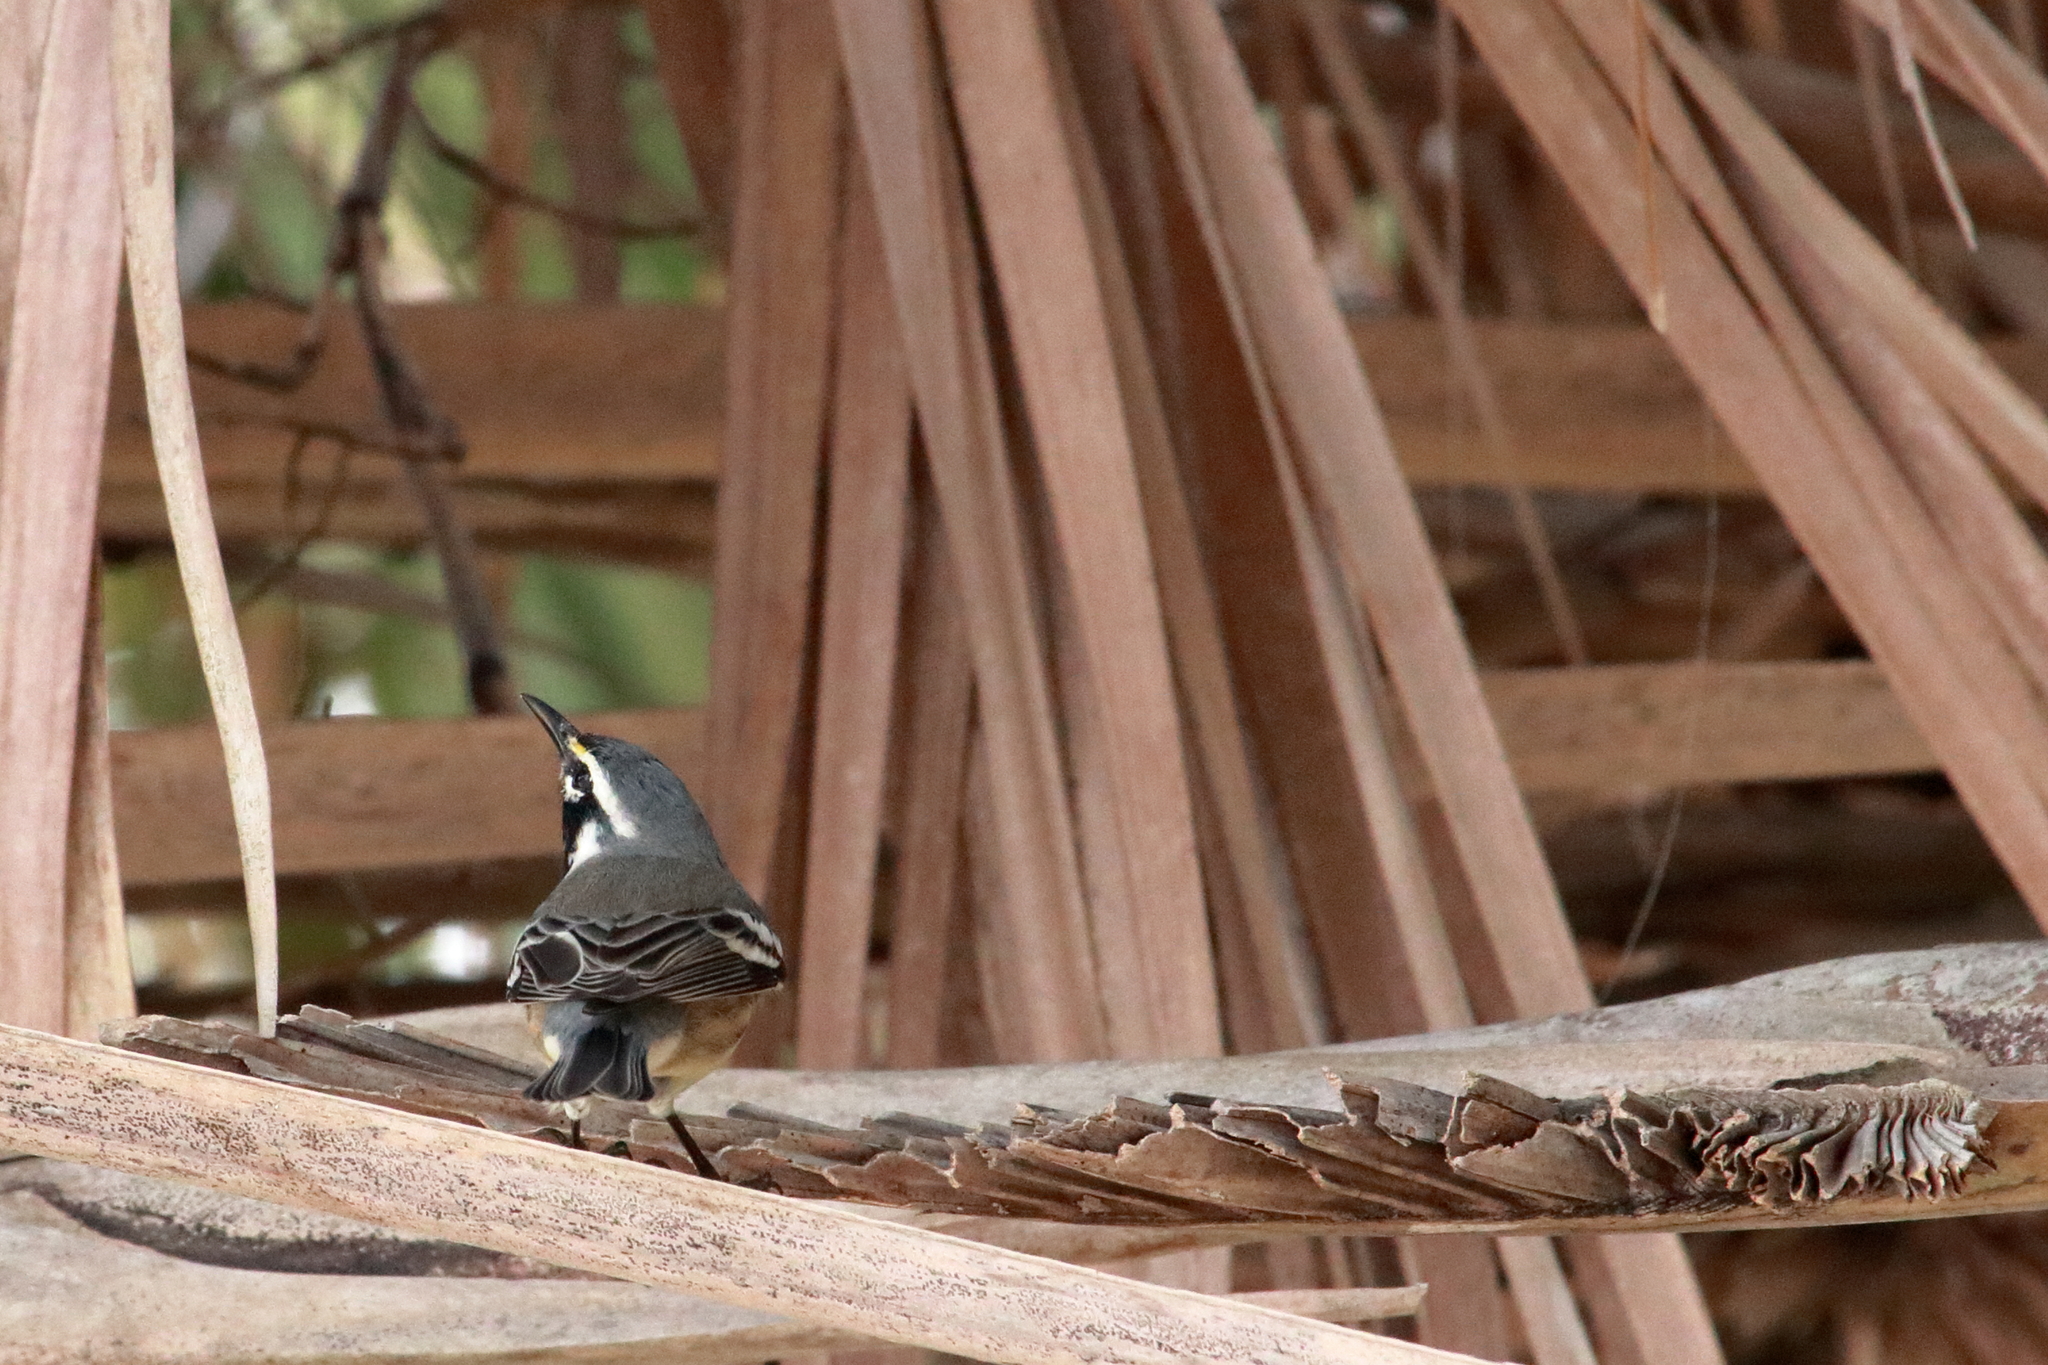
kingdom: Animalia
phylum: Chordata
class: Aves
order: Passeriformes
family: Parulidae
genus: Setophaga
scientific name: Setophaga dominica
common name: Yellow-throated warbler
